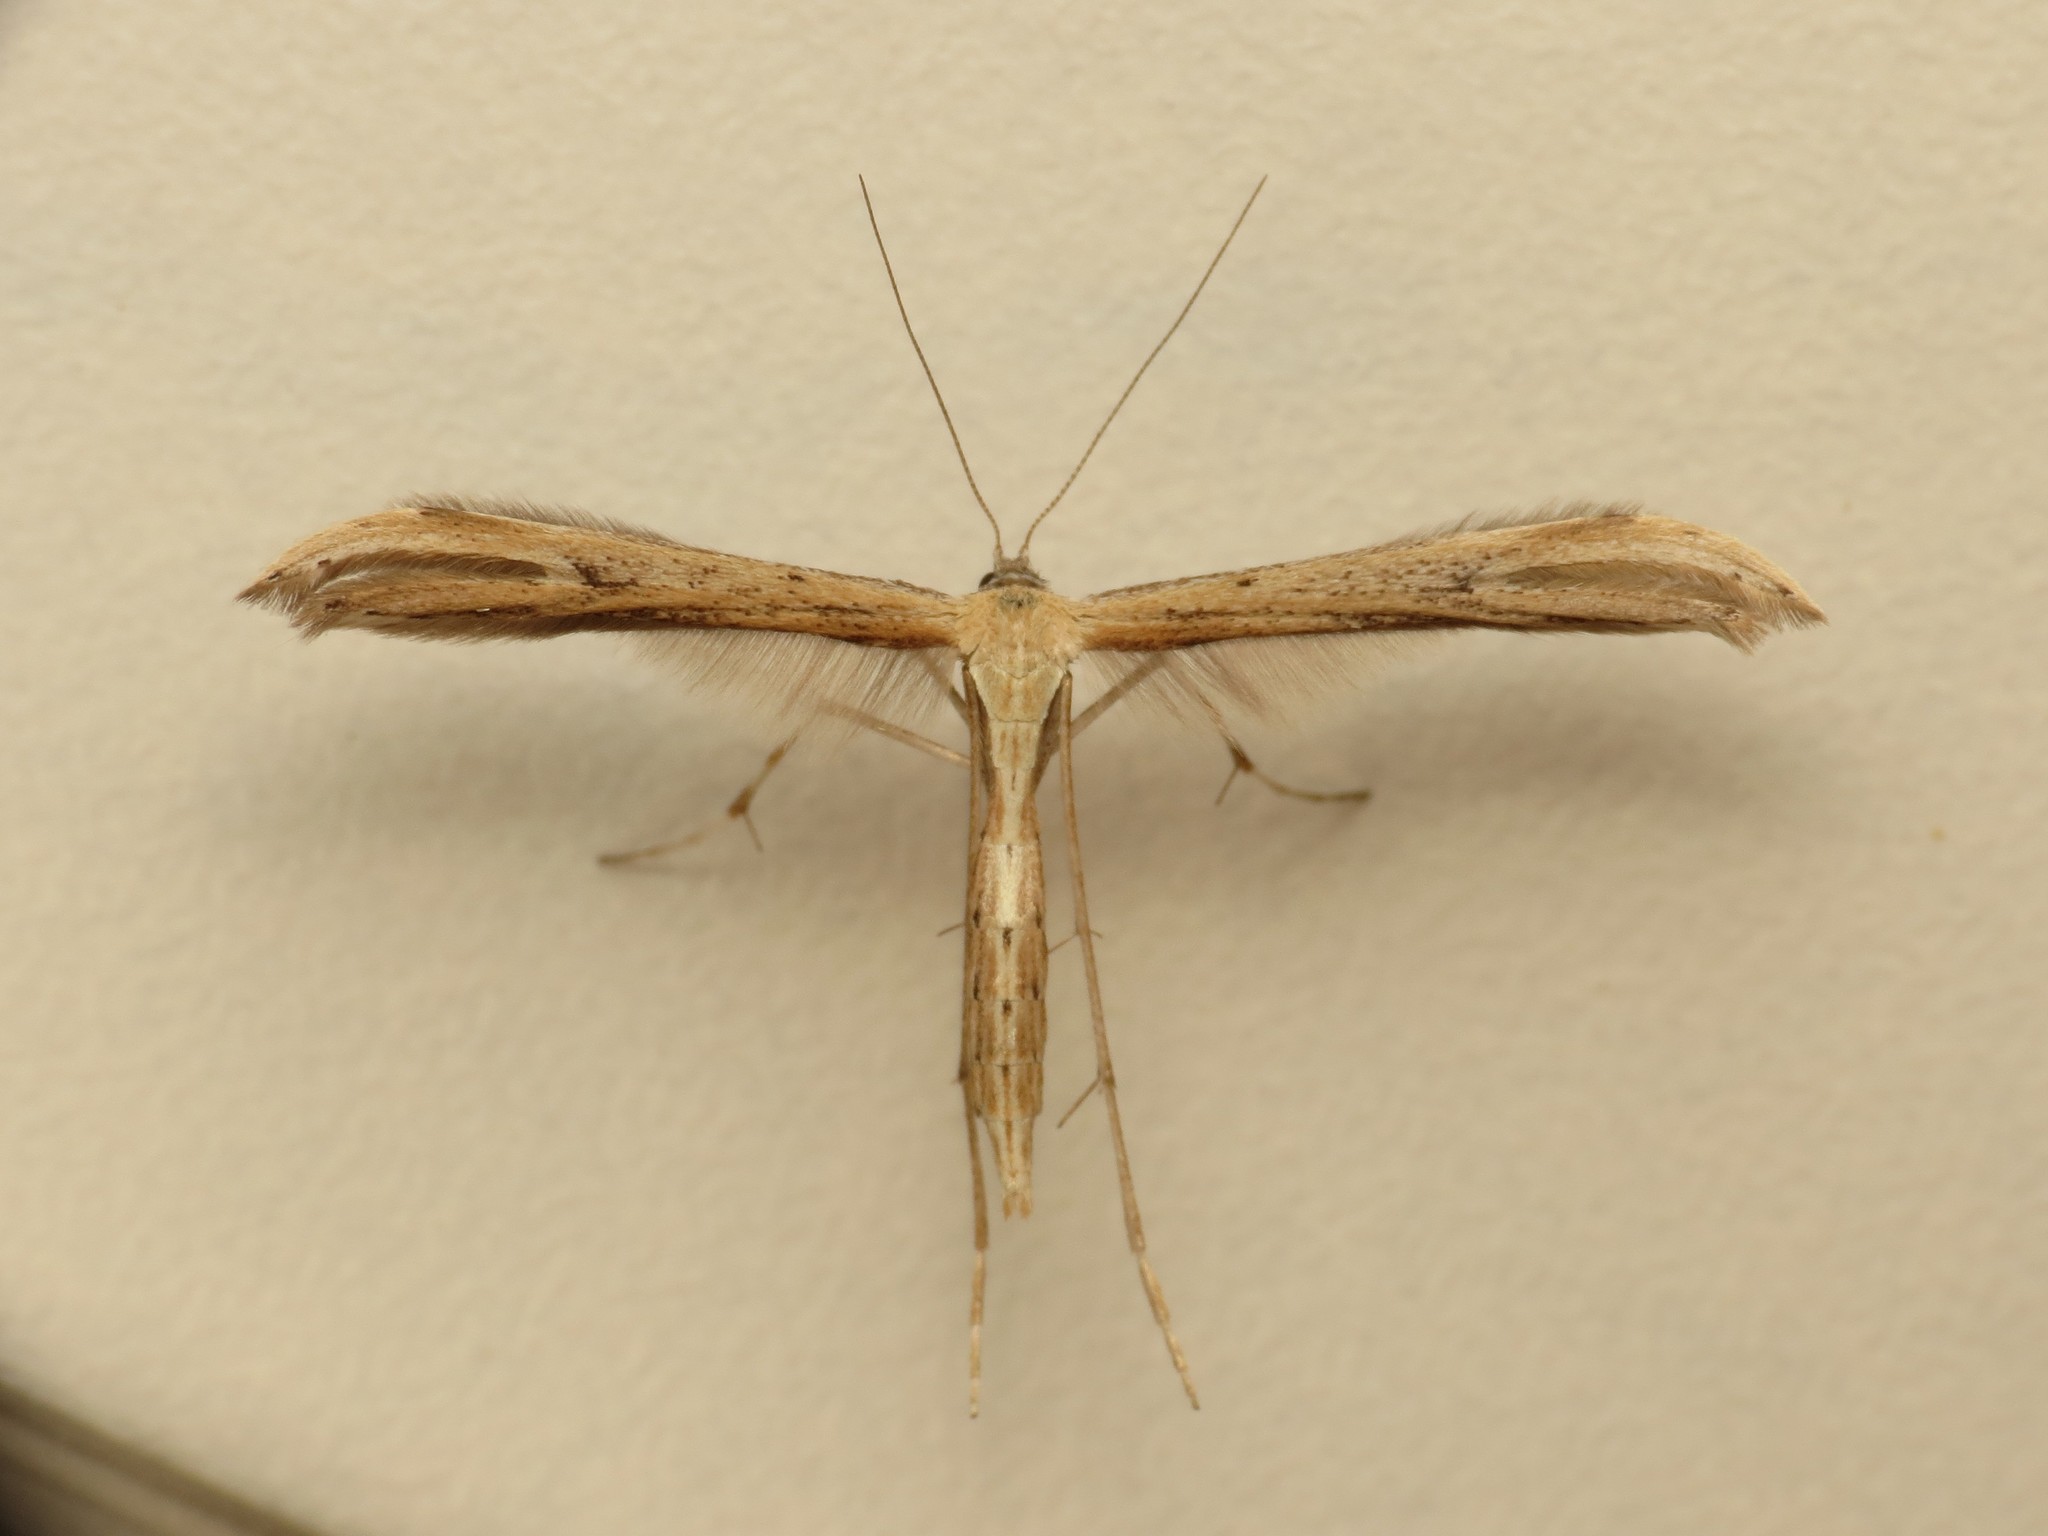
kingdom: Animalia
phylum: Arthropoda
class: Insecta
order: Lepidoptera
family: Pterophoridae
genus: Emmelina
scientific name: Emmelina monodactyla
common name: Common plume
